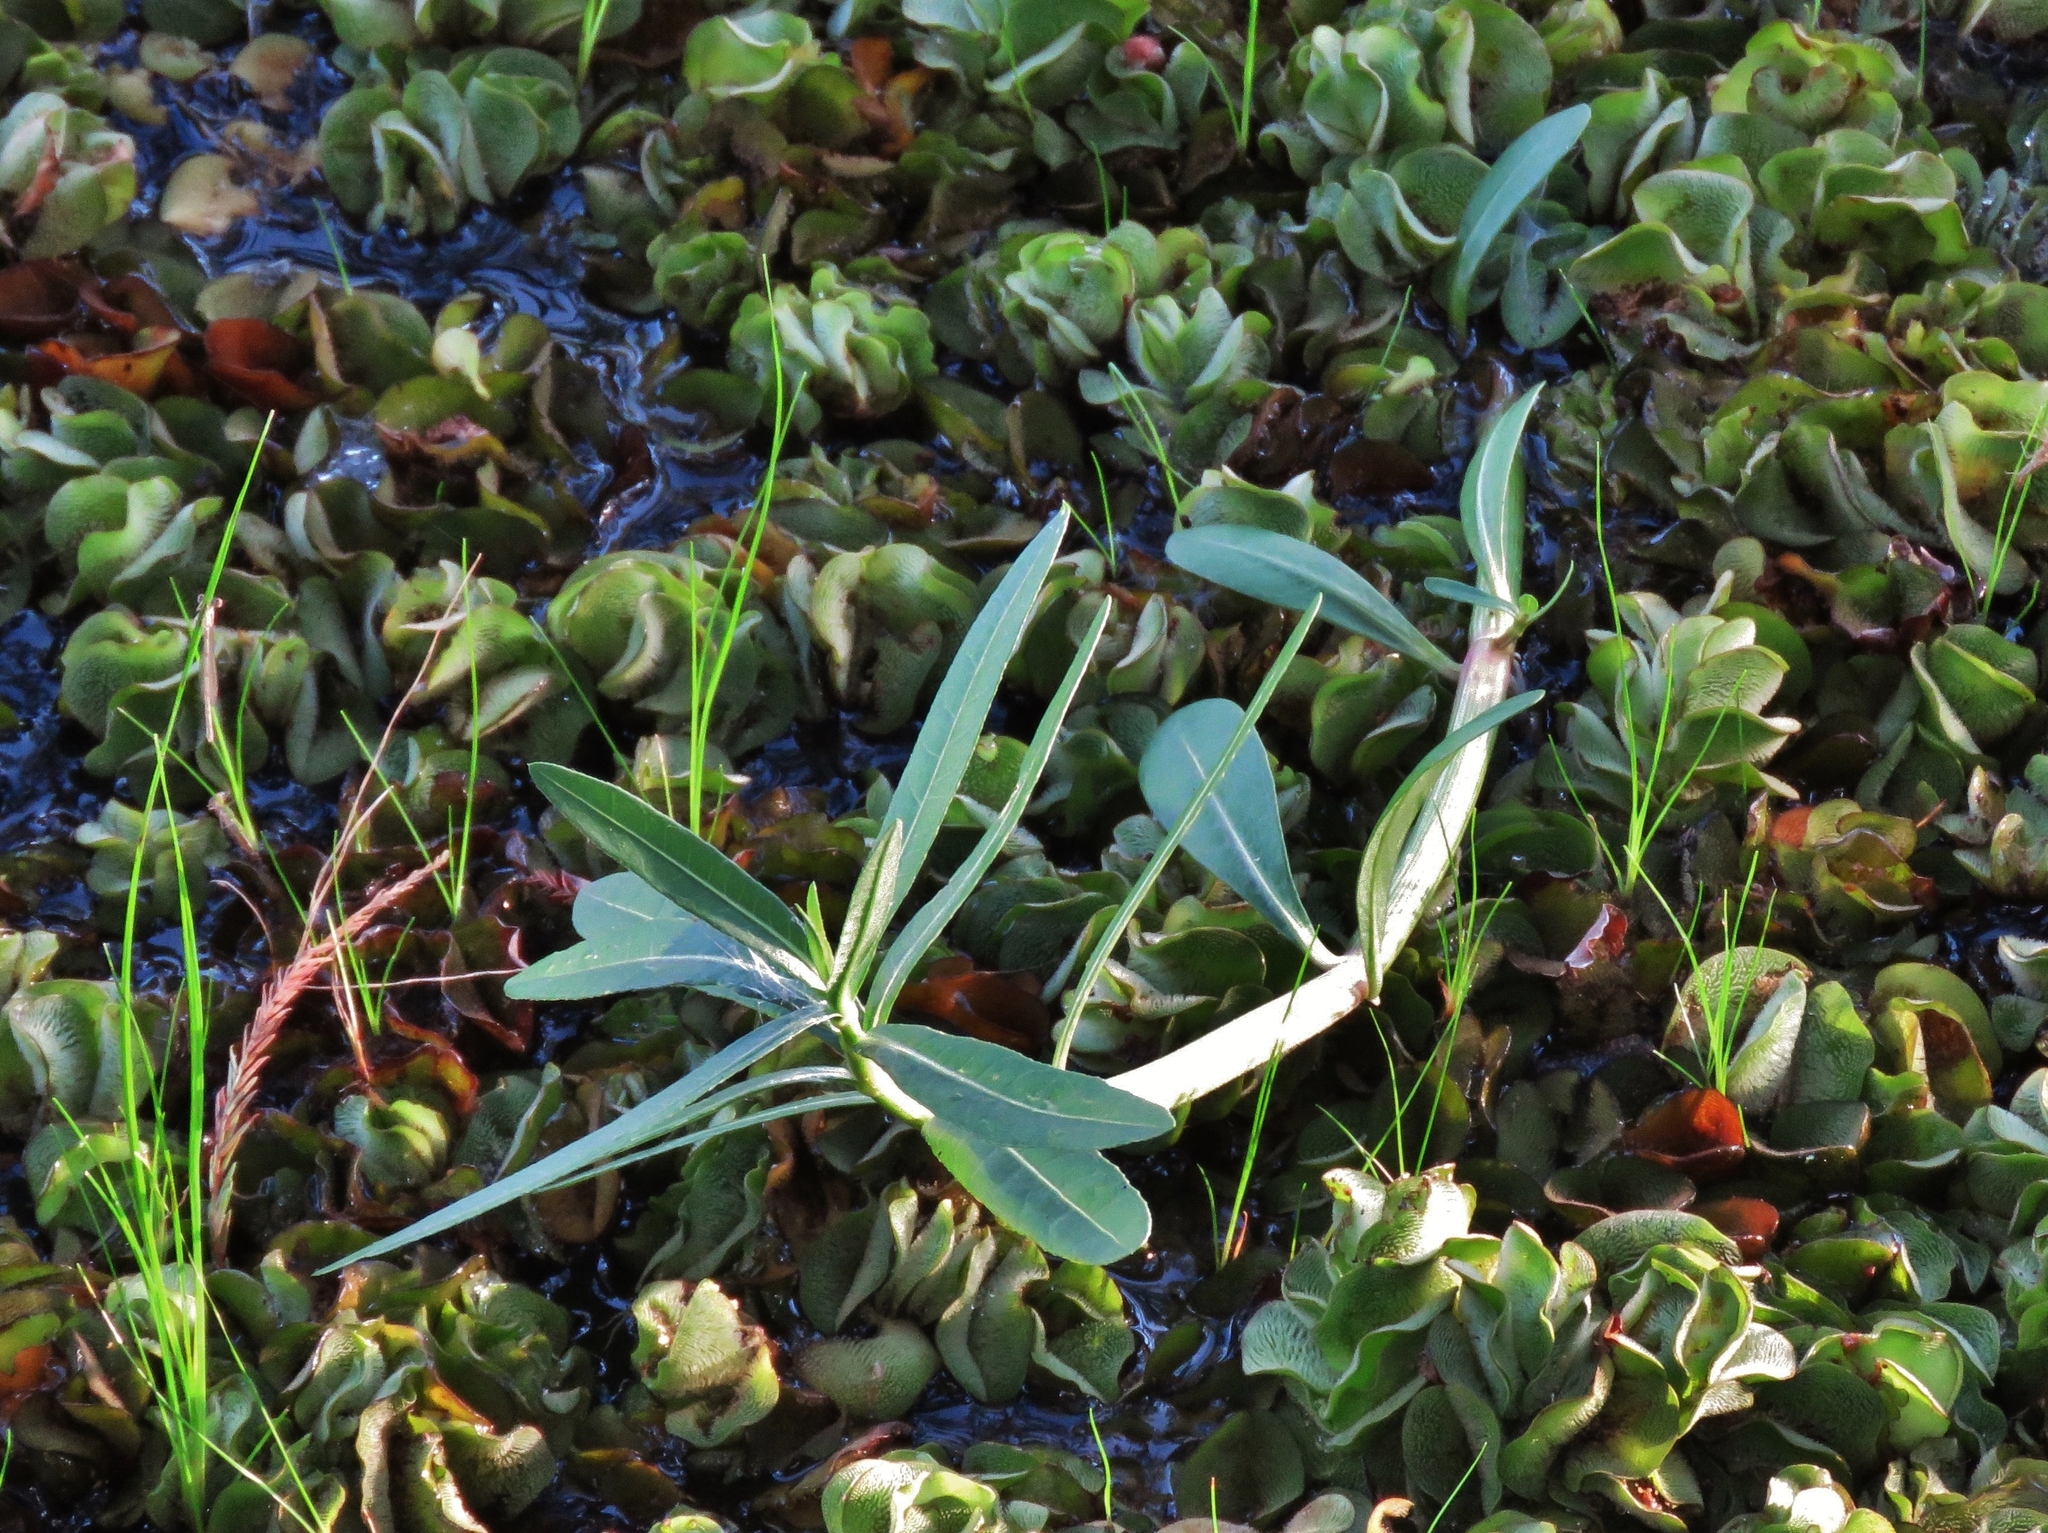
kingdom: Plantae
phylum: Tracheophyta
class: Magnoliopsida
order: Caryophyllales
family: Amaranthaceae
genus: Alternanthera
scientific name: Alternanthera philoxeroides
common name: Alligatorweed
